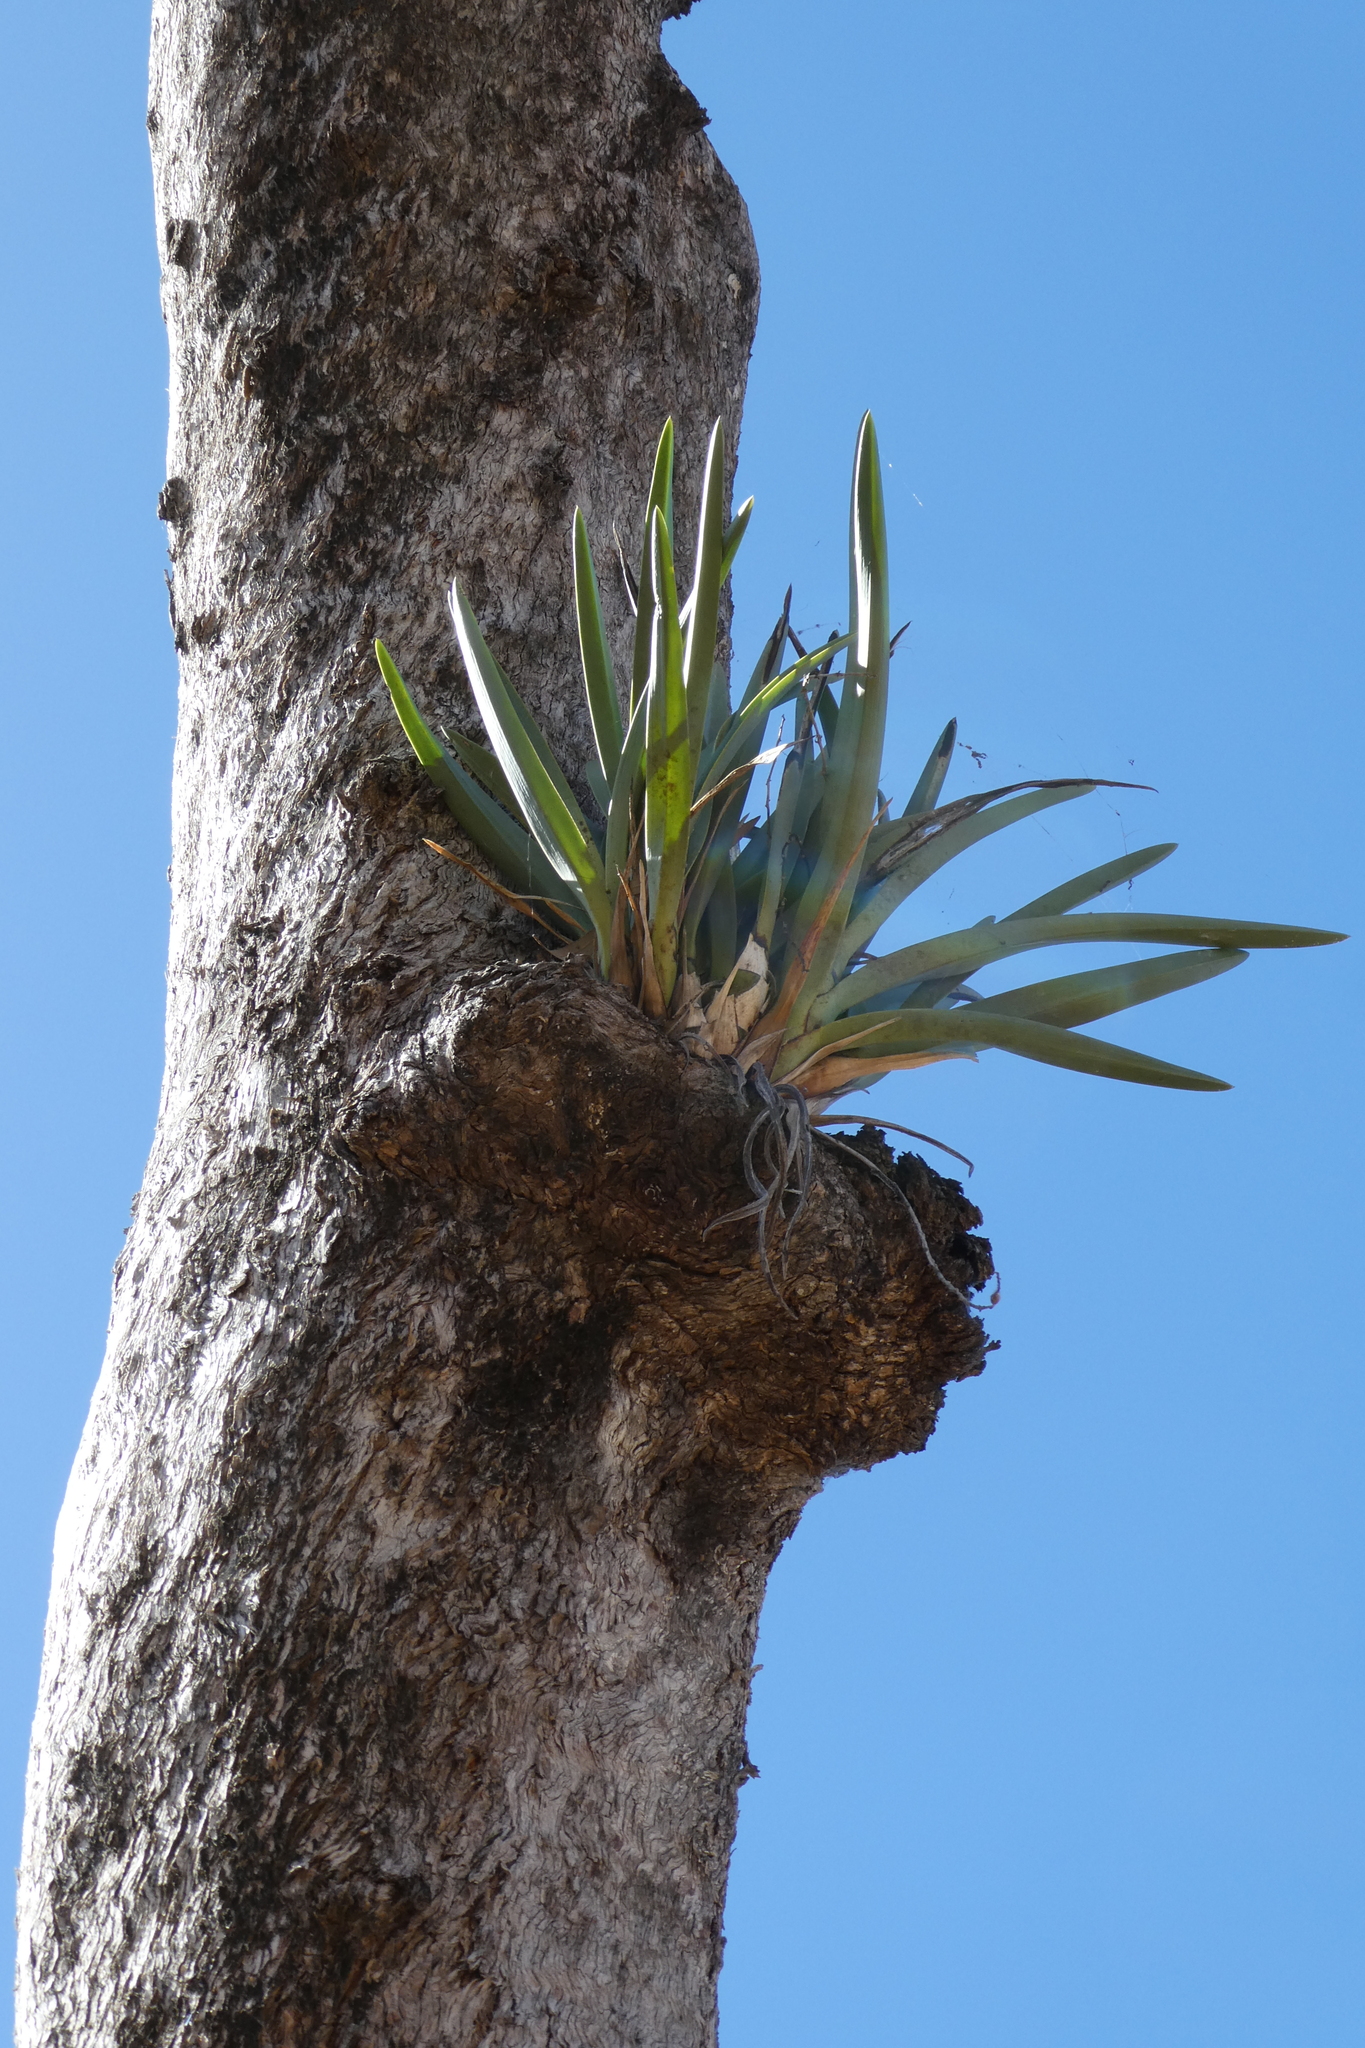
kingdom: Plantae
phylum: Tracheophyta
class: Liliopsida
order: Asparagales
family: Orchidaceae
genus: Cymbidium
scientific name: Cymbidium canaliculatum
